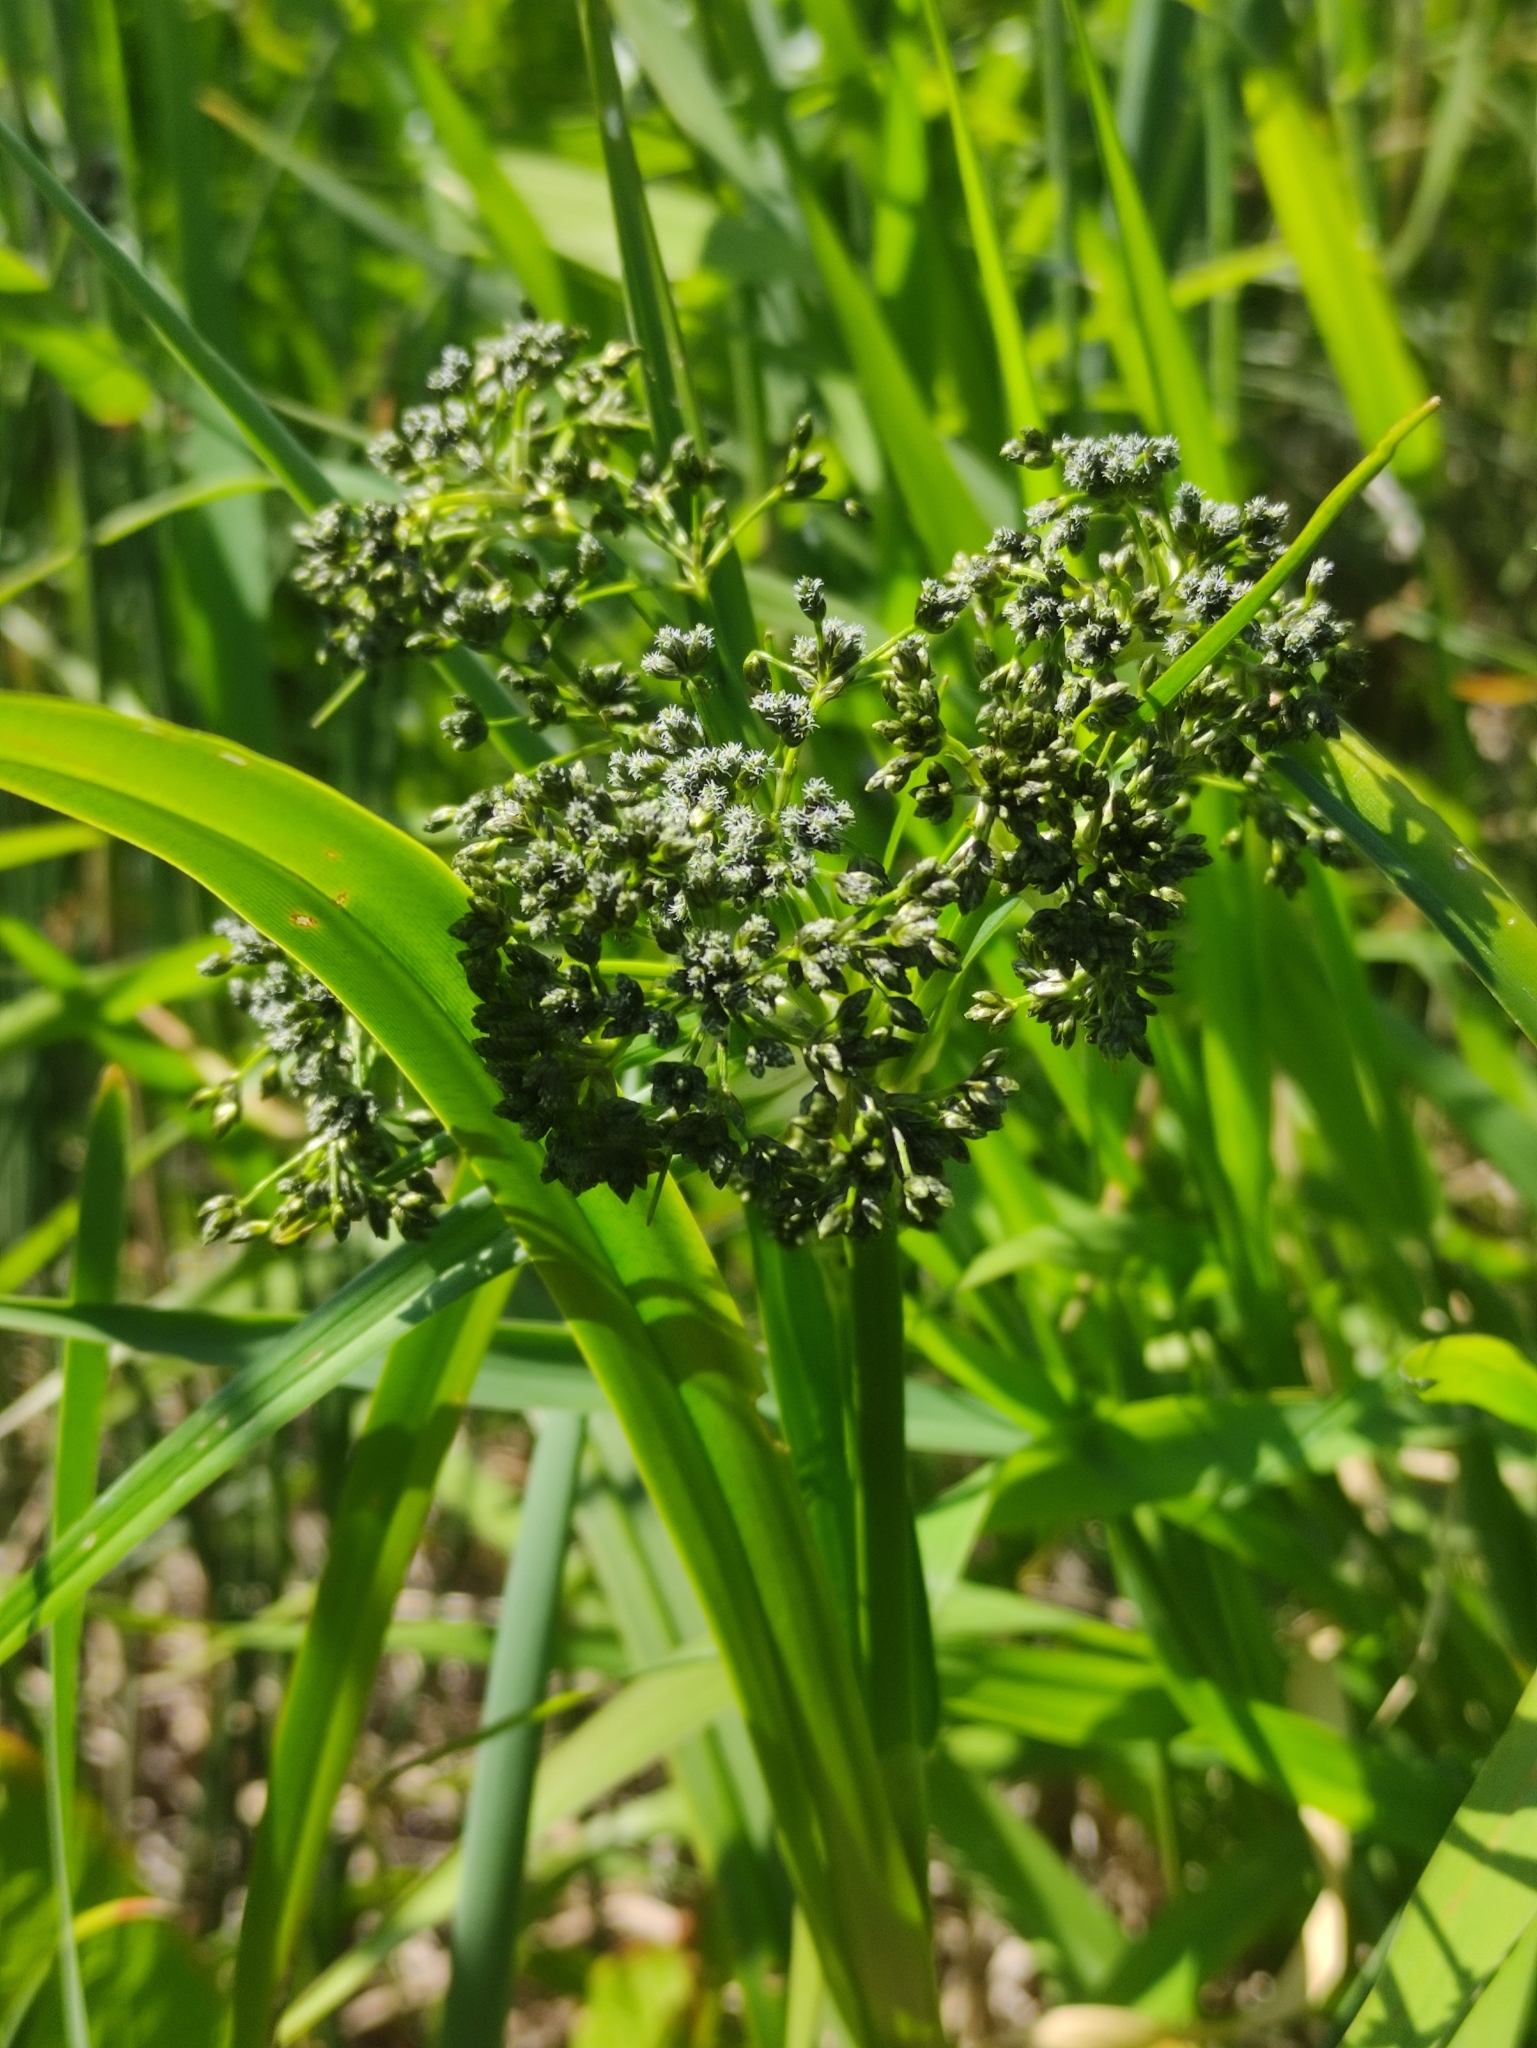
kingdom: Plantae
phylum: Tracheophyta
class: Liliopsida
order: Poales
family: Cyperaceae
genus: Scirpus
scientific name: Scirpus sylvaticus
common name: Wood club-rush
